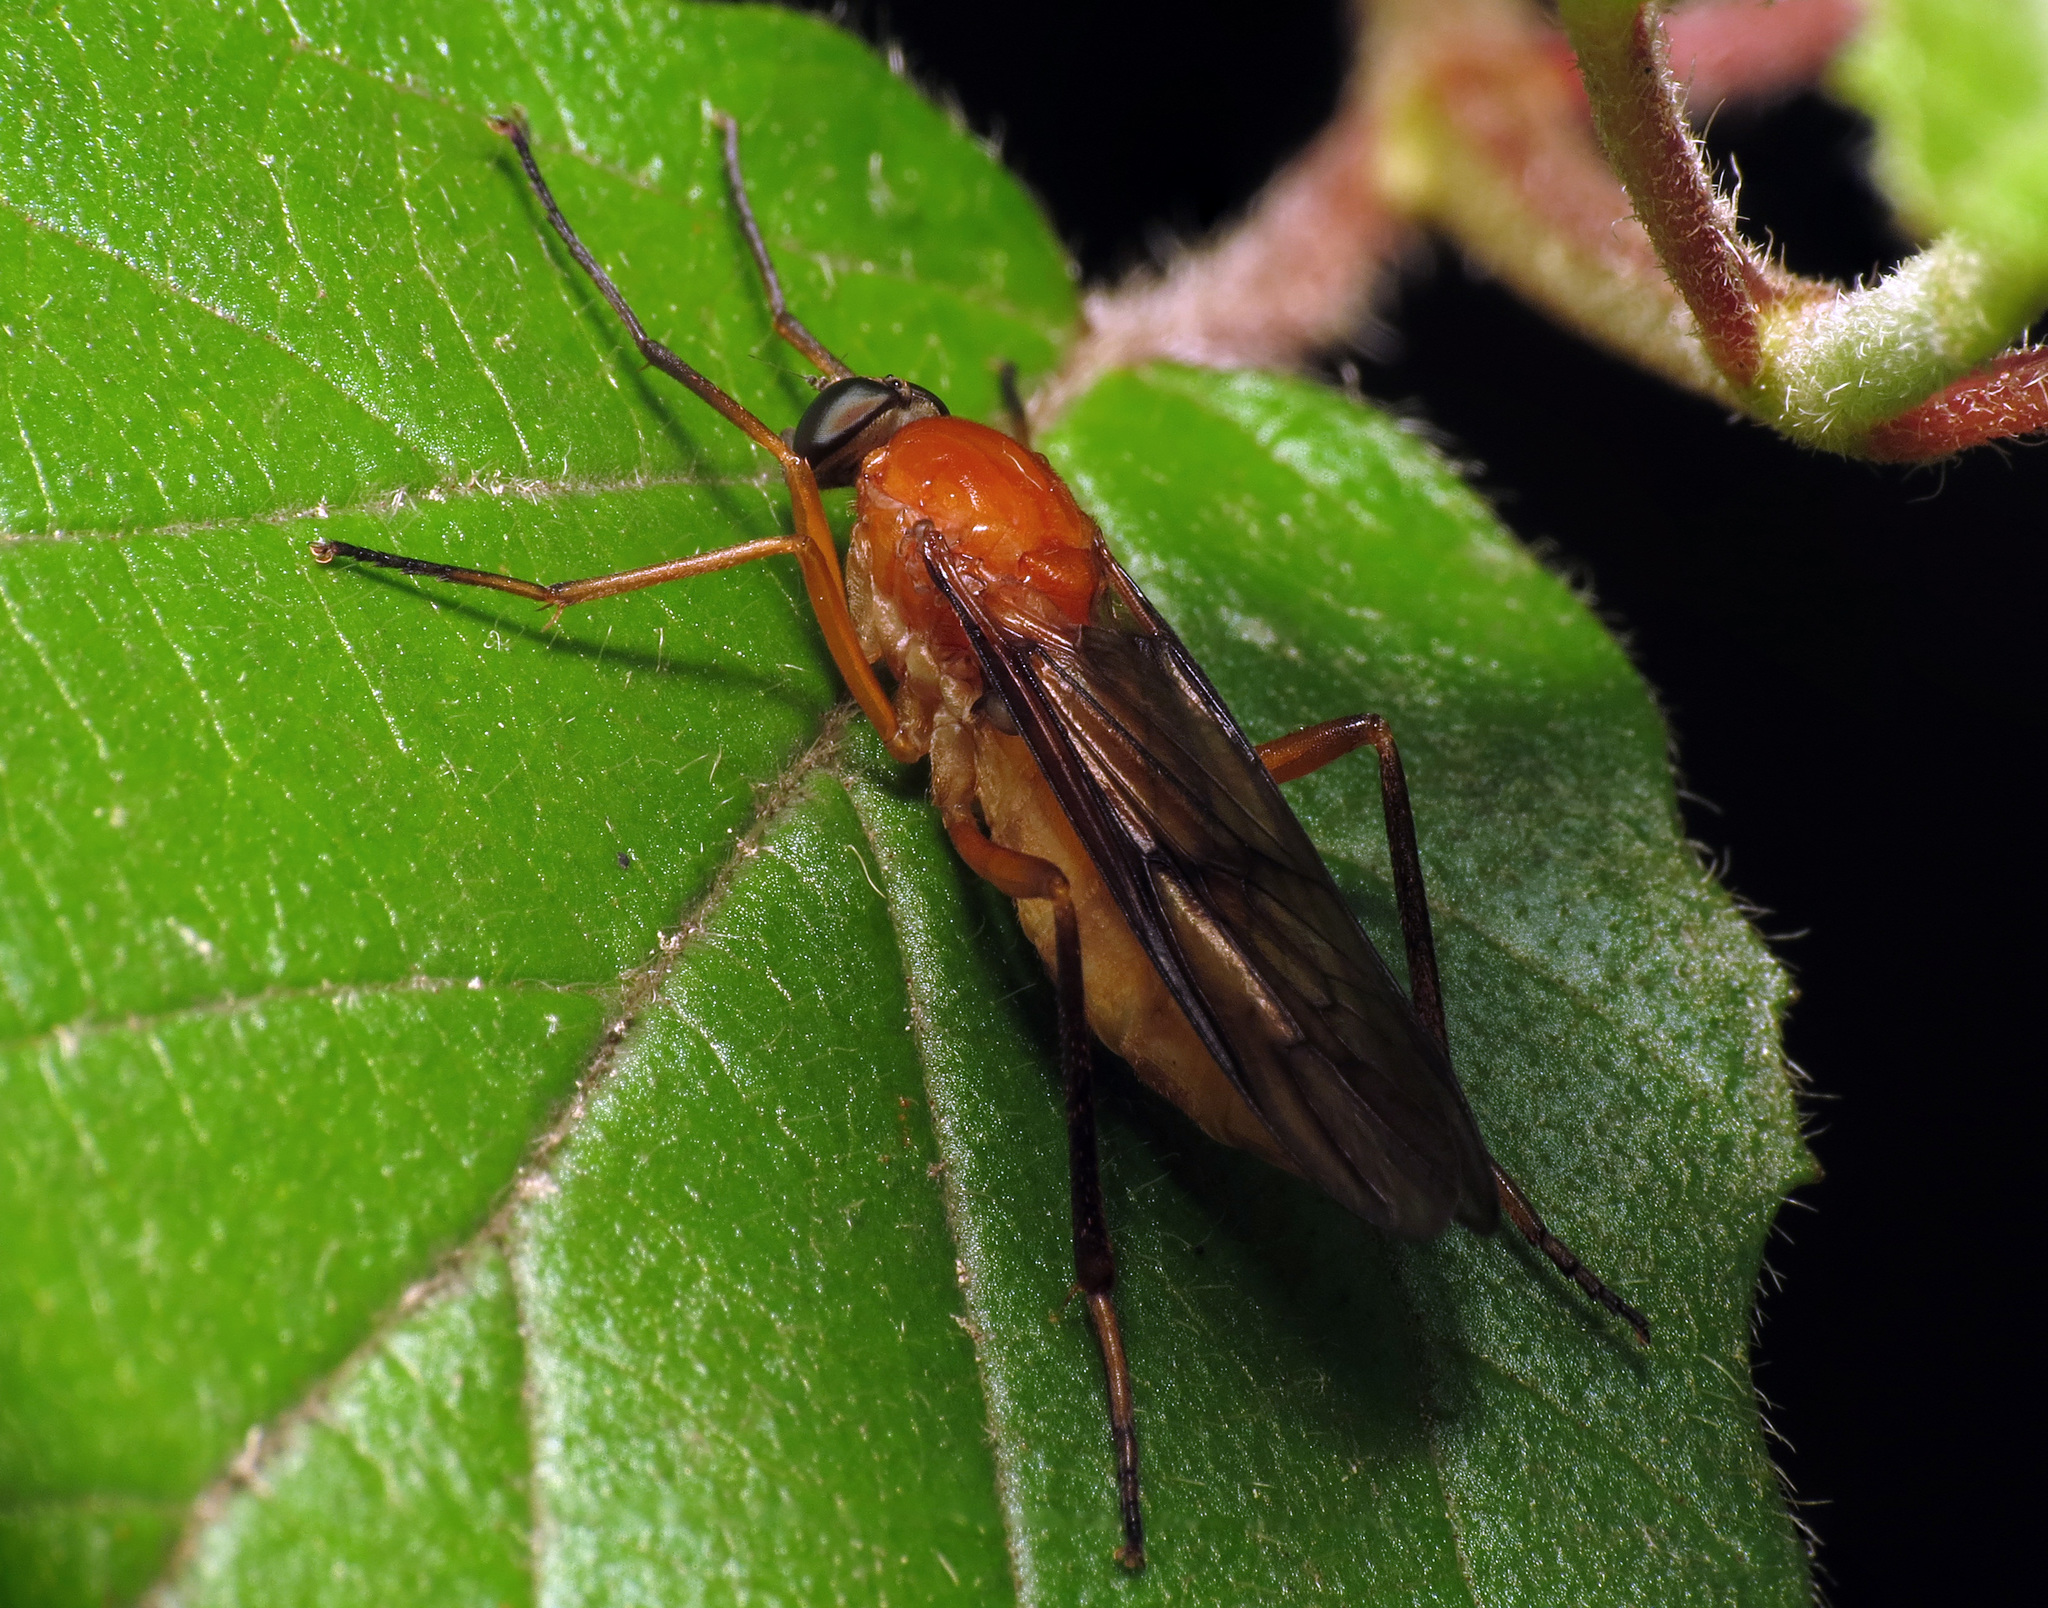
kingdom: Animalia
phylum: Arthropoda
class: Insecta
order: Diptera
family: Xylophagidae
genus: Dialysis
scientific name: Dialysis rufithorax
